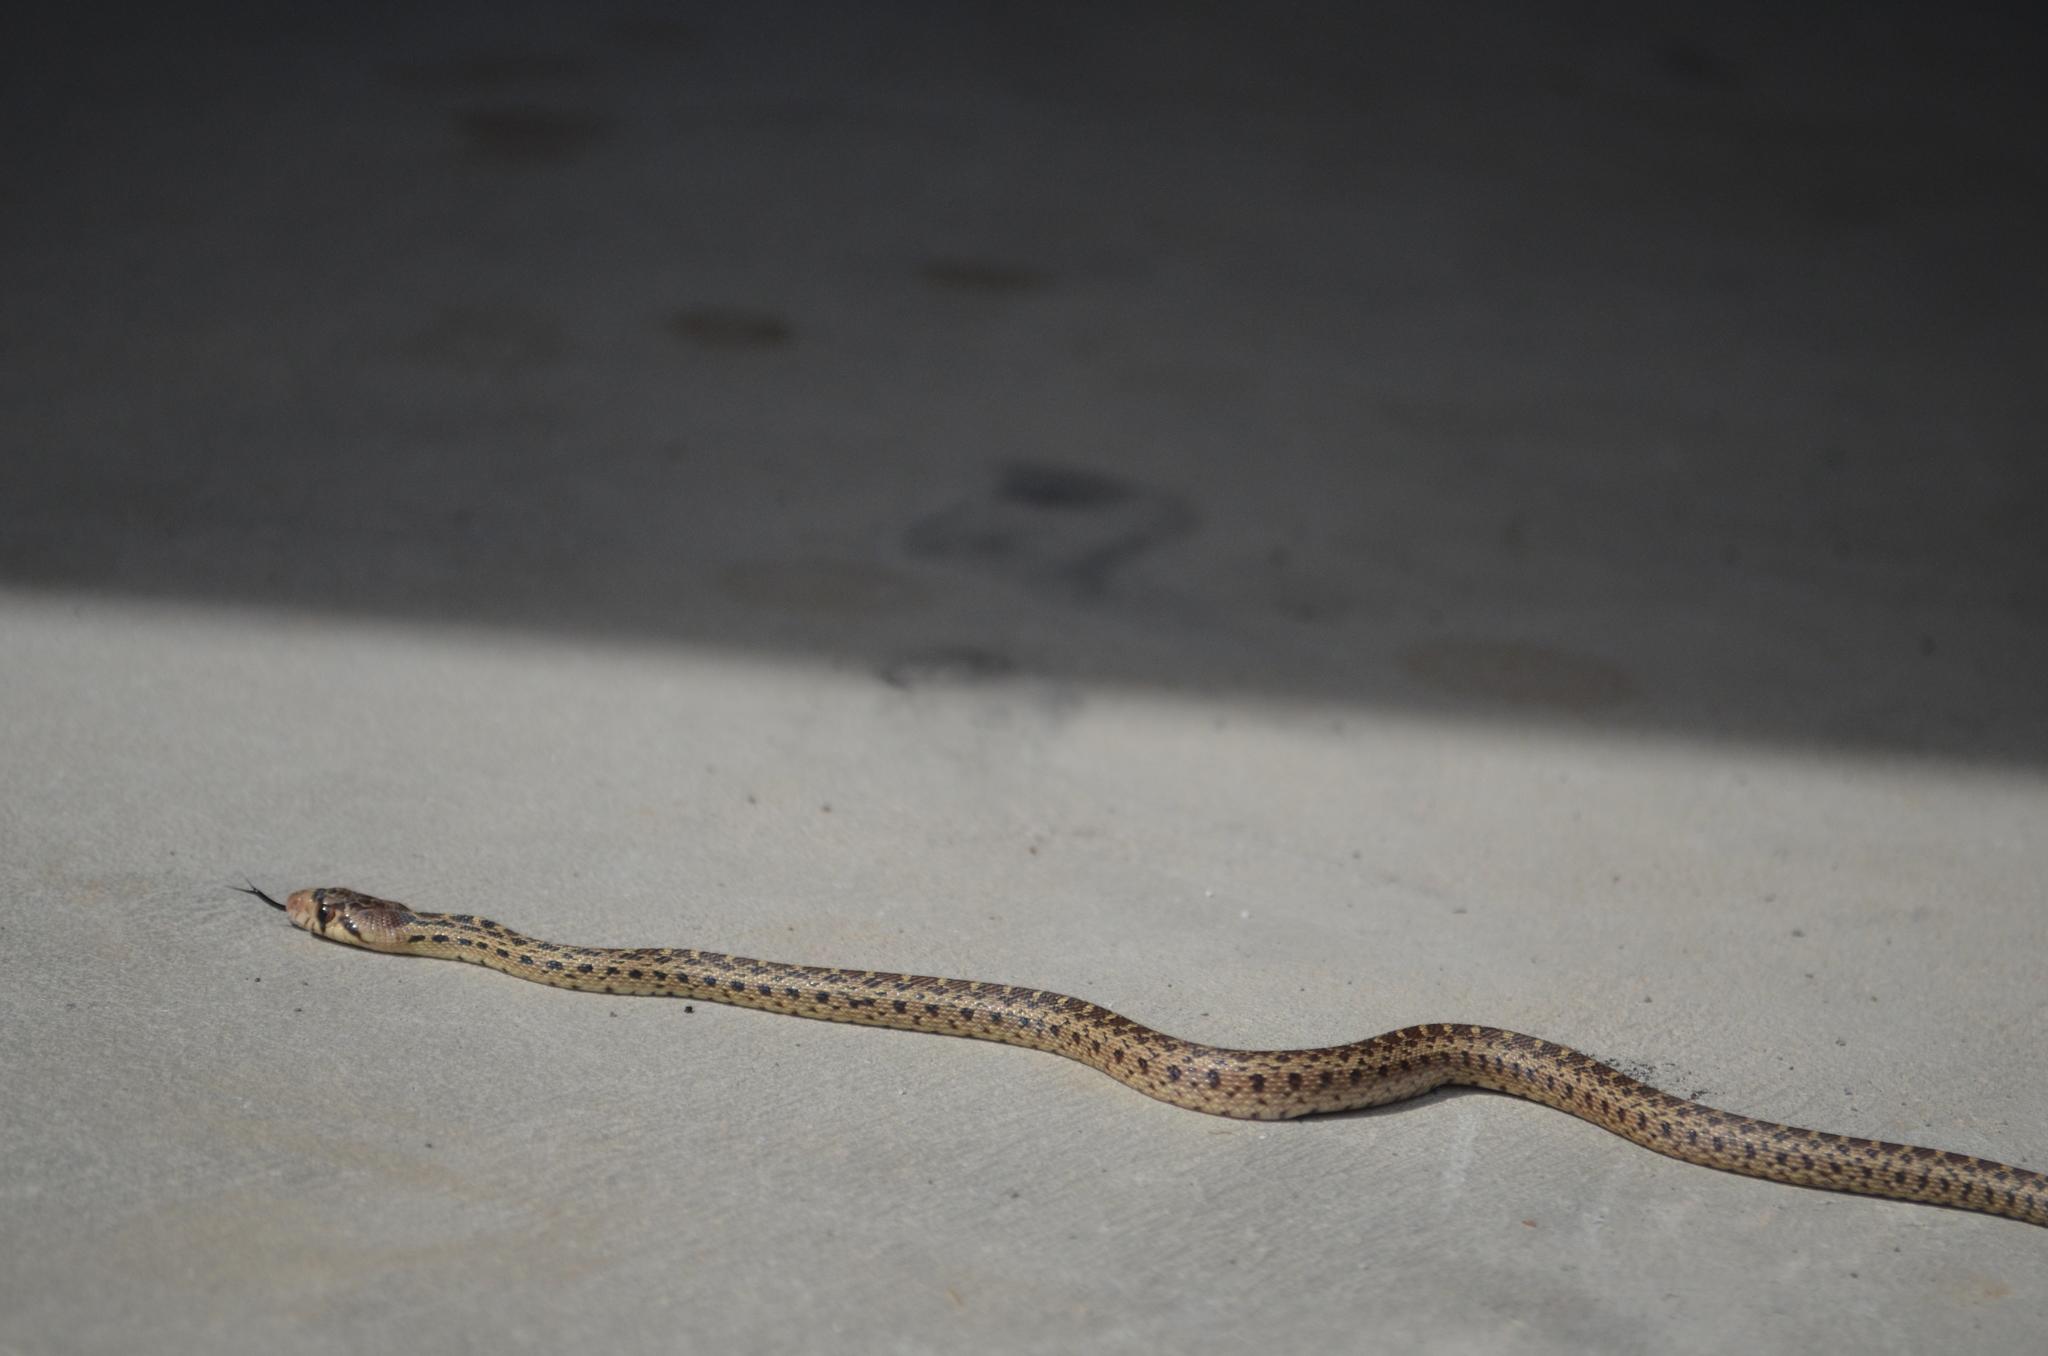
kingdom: Animalia
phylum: Chordata
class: Squamata
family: Colubridae
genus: Pituophis
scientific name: Pituophis catenifer
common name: Gopher snake
